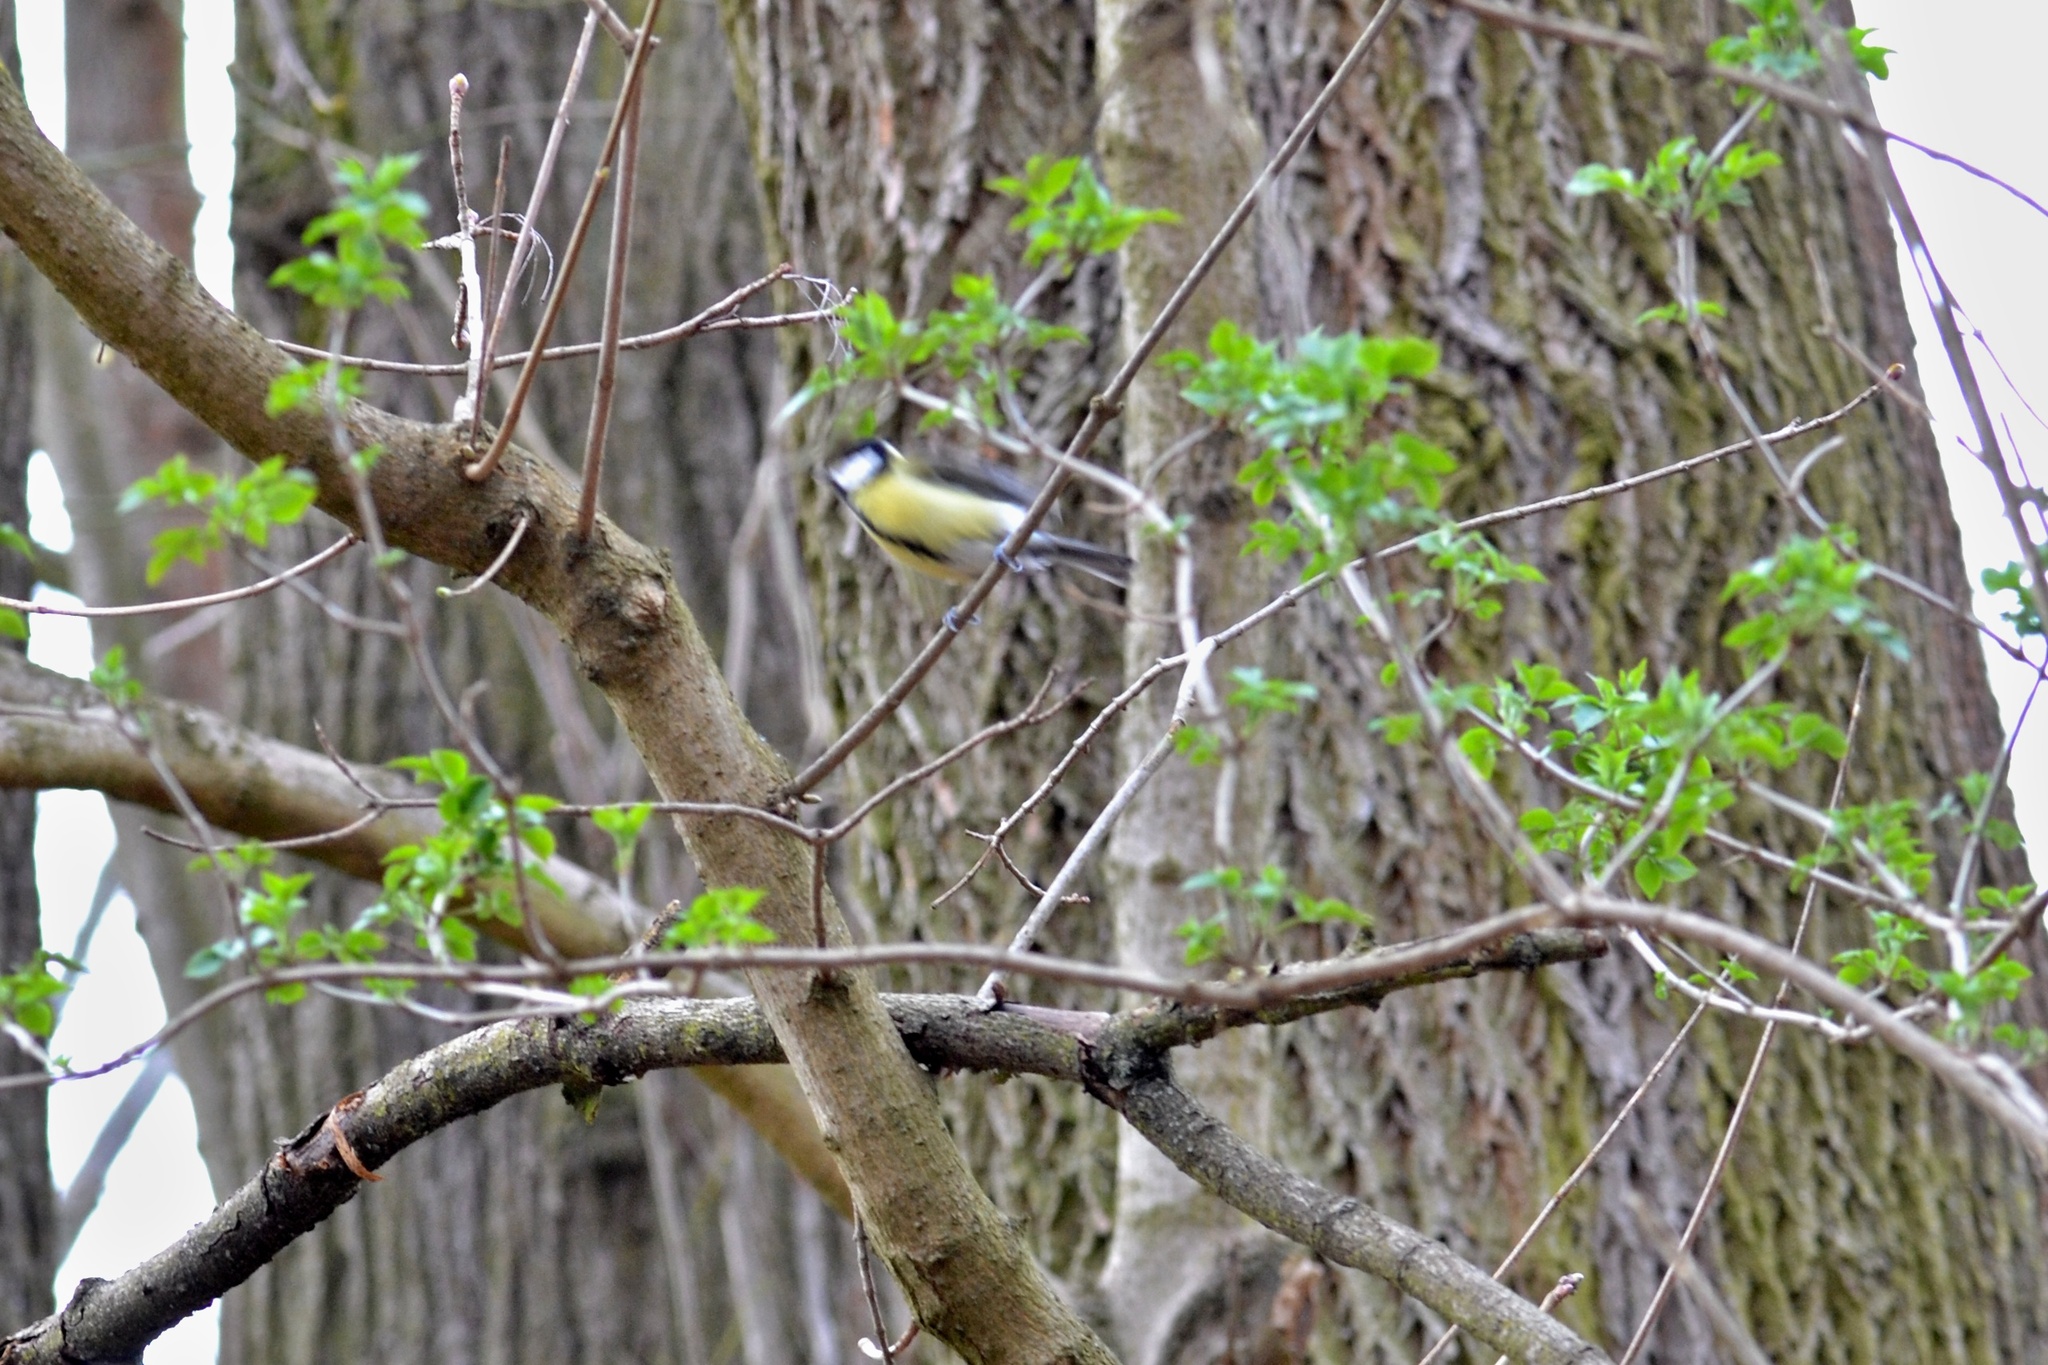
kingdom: Animalia
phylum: Chordata
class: Aves
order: Passeriformes
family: Paridae
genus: Parus
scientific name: Parus major
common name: Great tit
